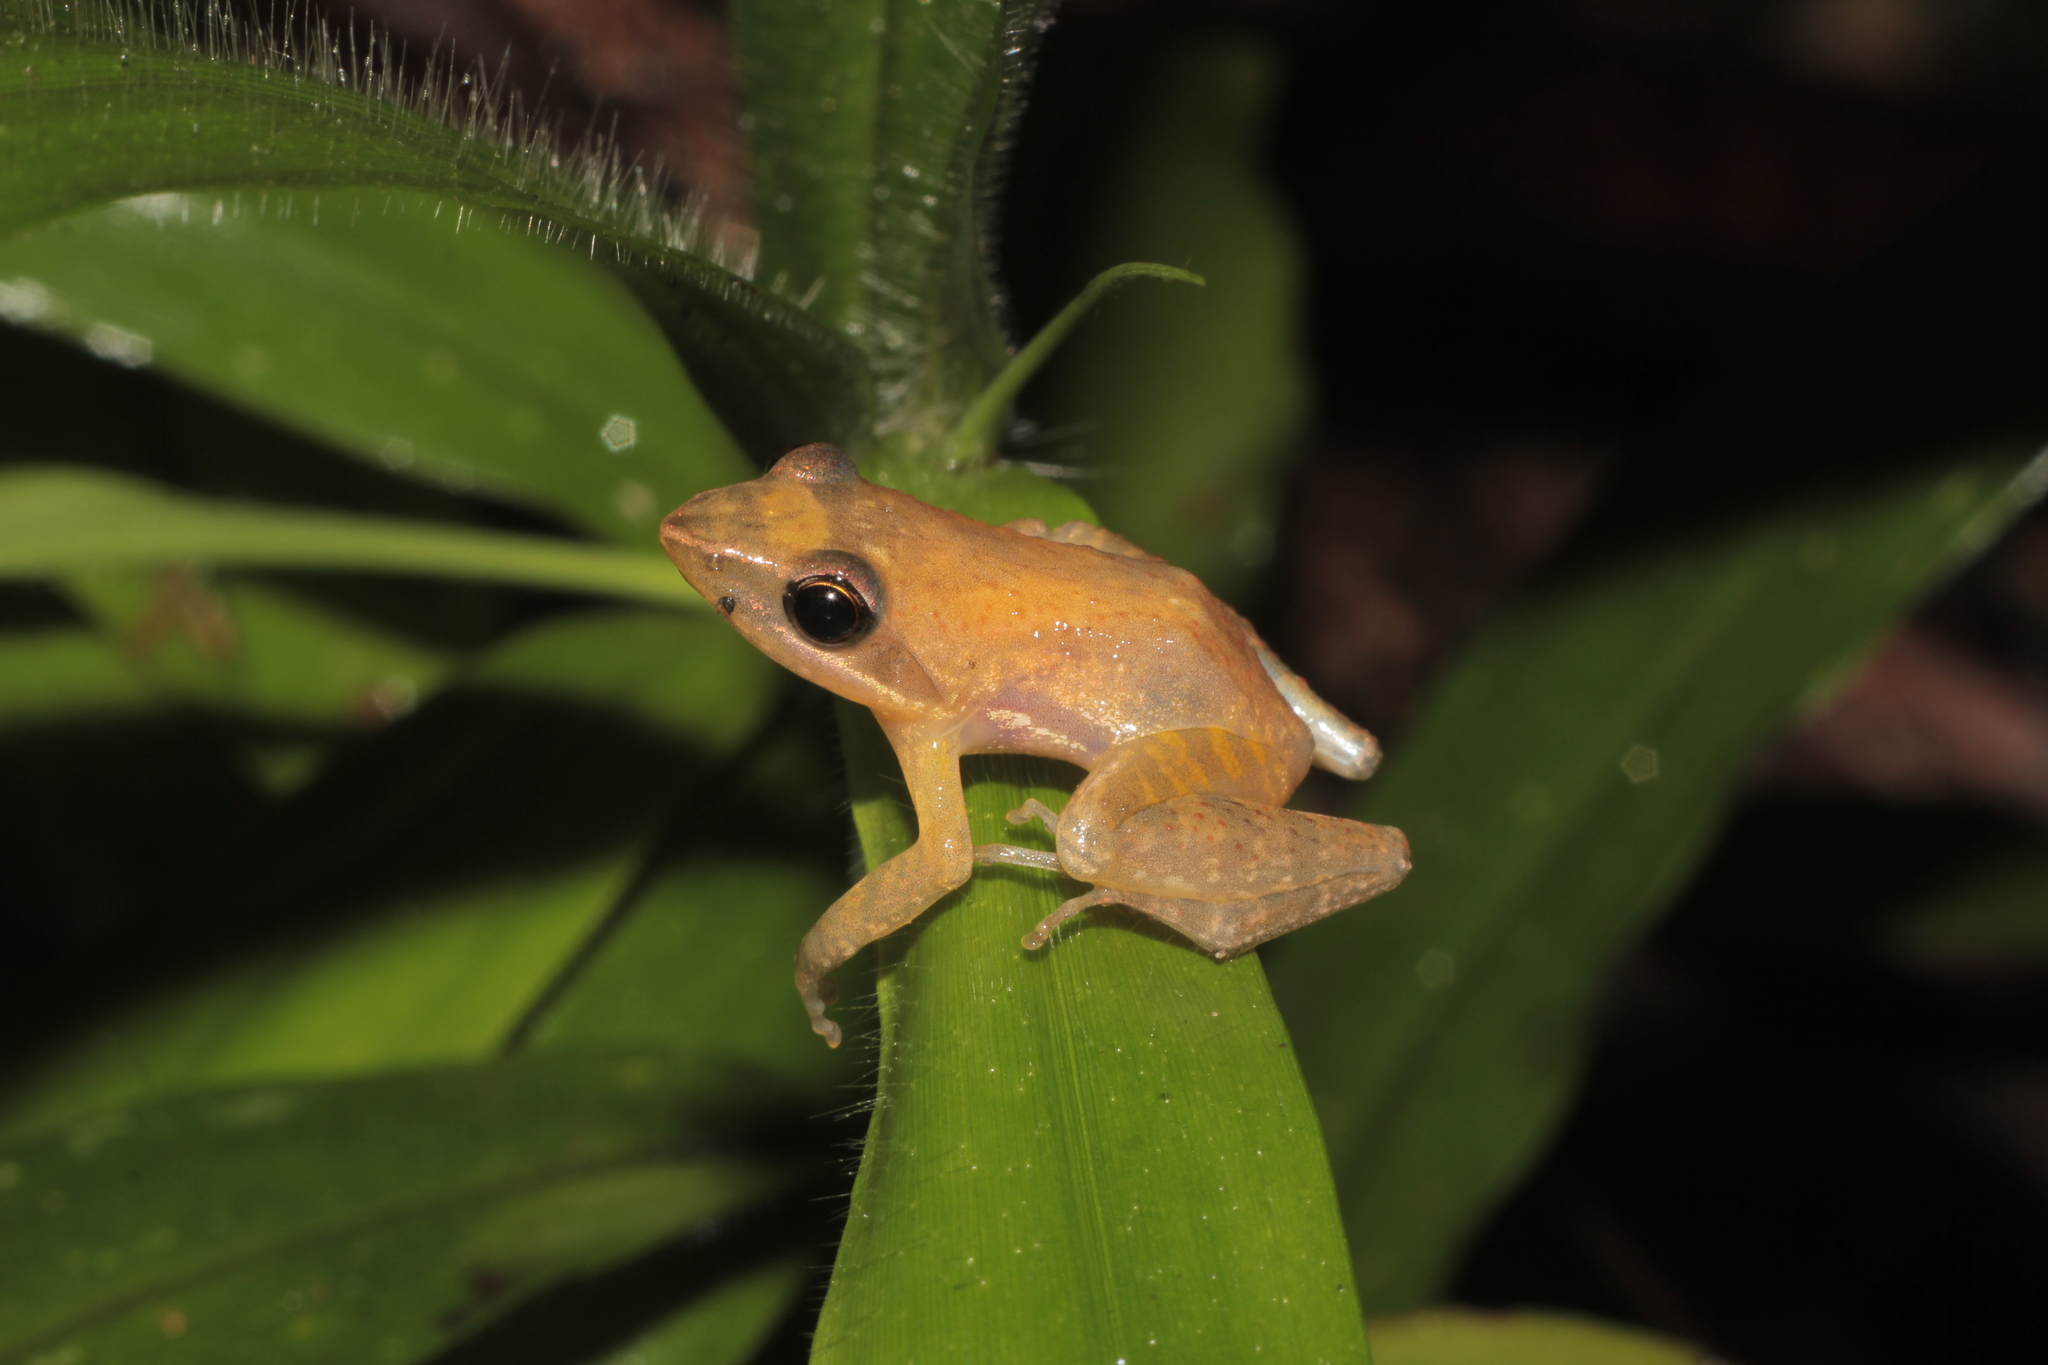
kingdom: Animalia
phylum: Chordata
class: Amphibia
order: Anura
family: Mantellidae
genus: Blommersia
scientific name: Blommersia blommersae
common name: Moramanga madagascar frog
